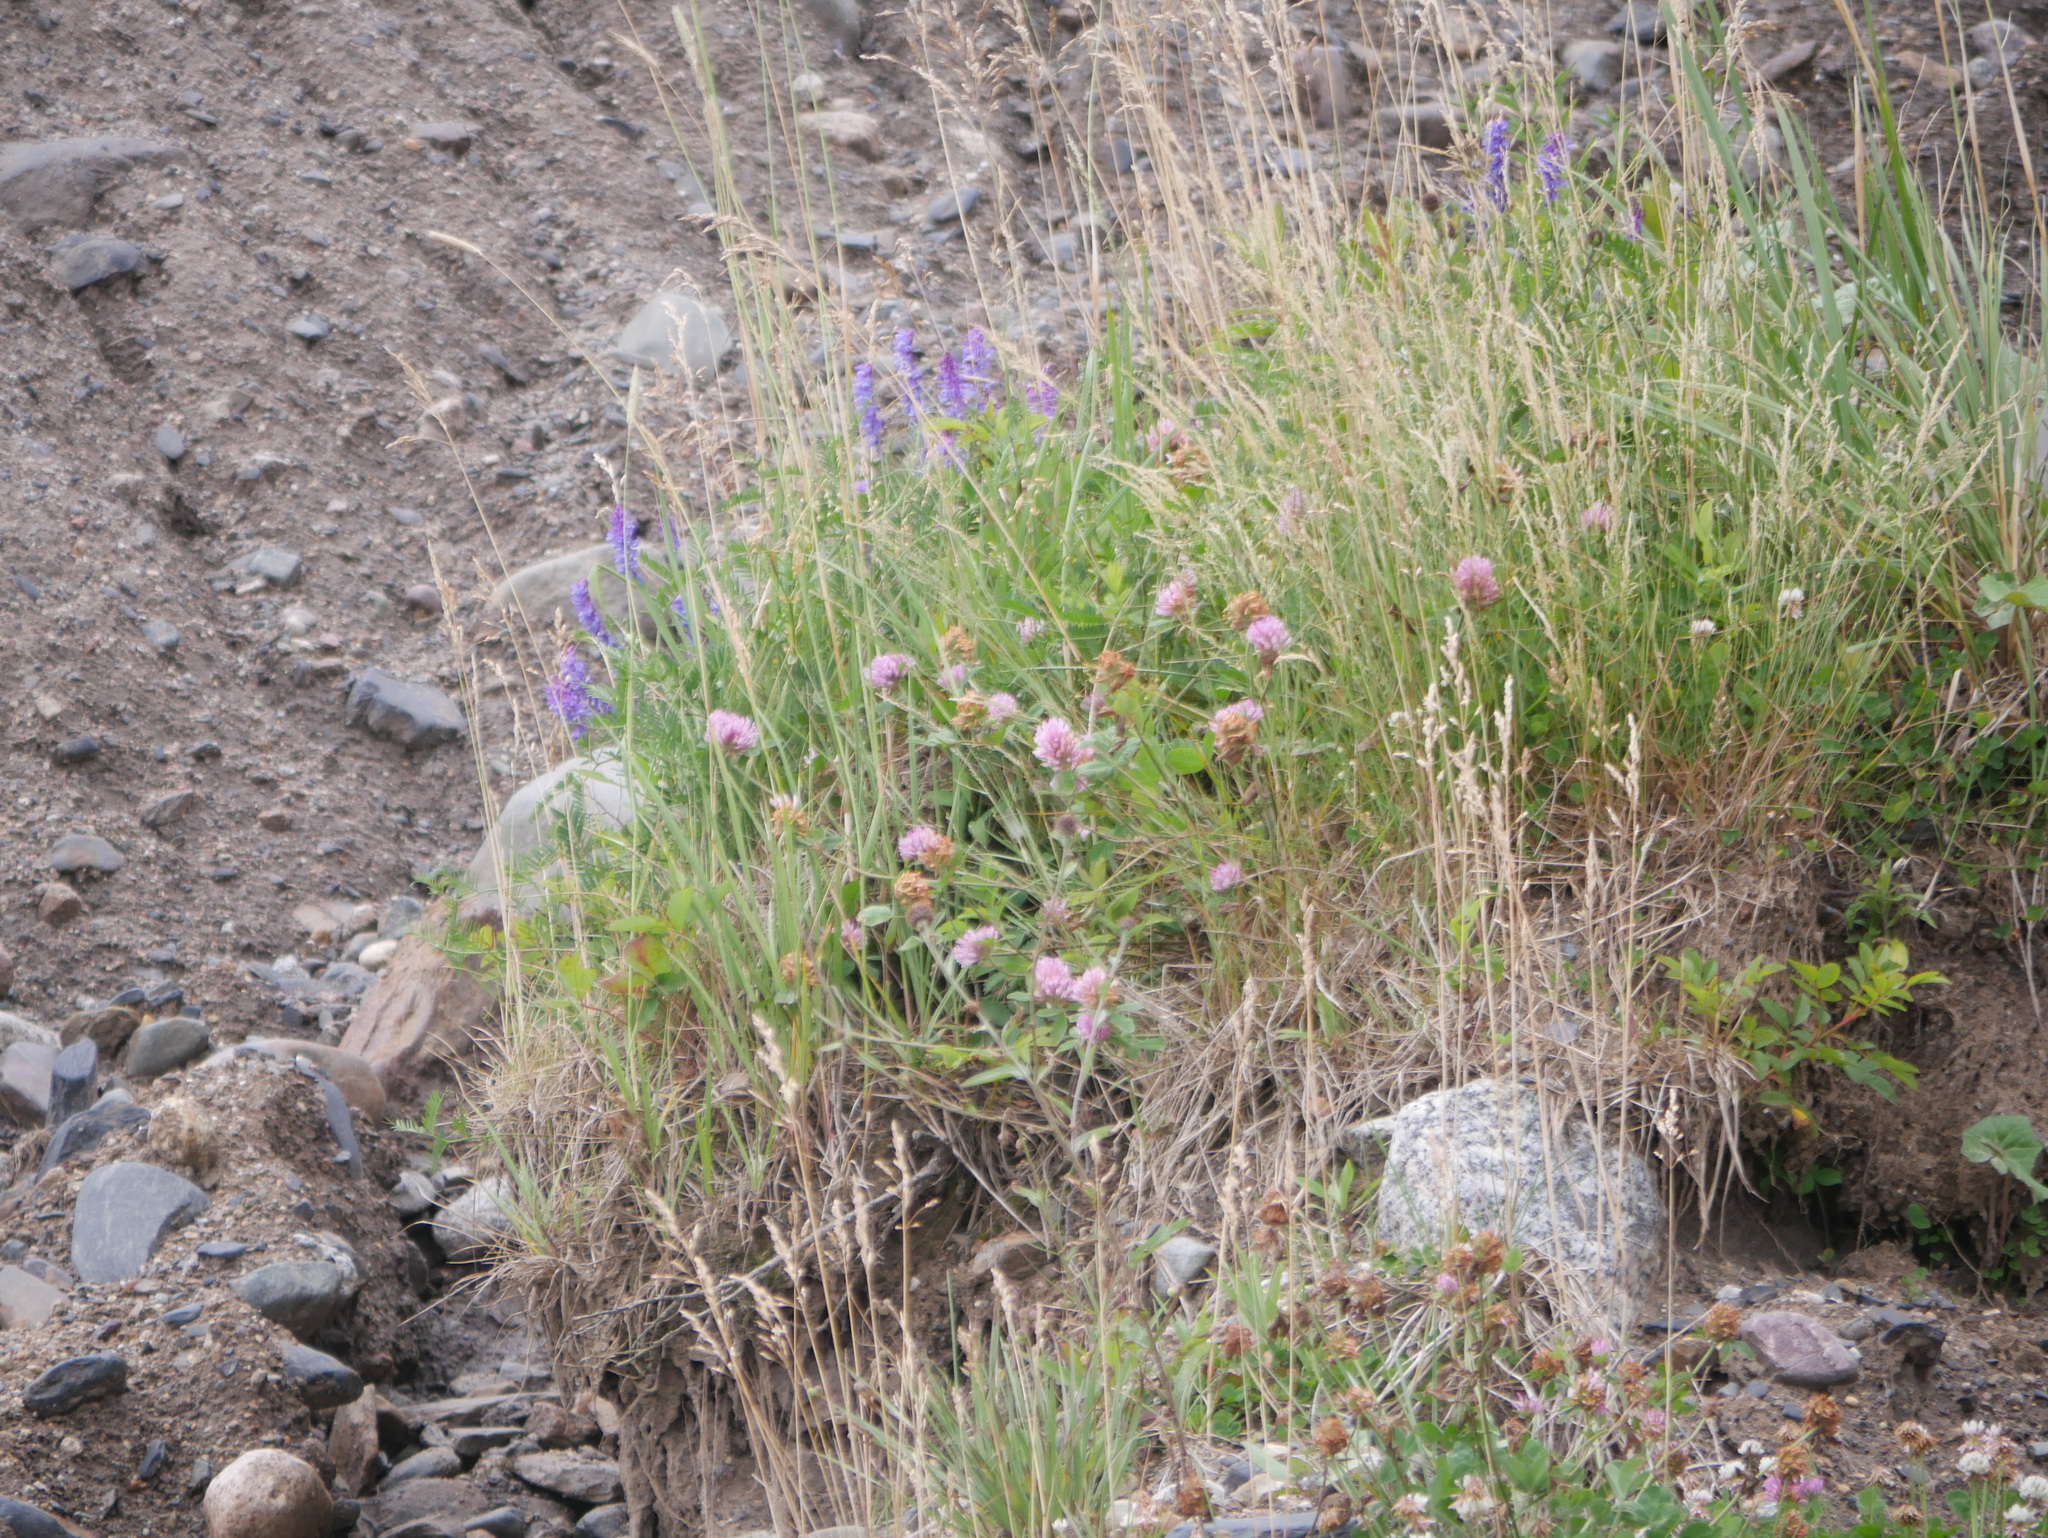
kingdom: Plantae
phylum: Tracheophyta
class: Magnoliopsida
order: Fabales
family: Fabaceae
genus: Trifolium
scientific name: Trifolium pratense
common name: Red clover
